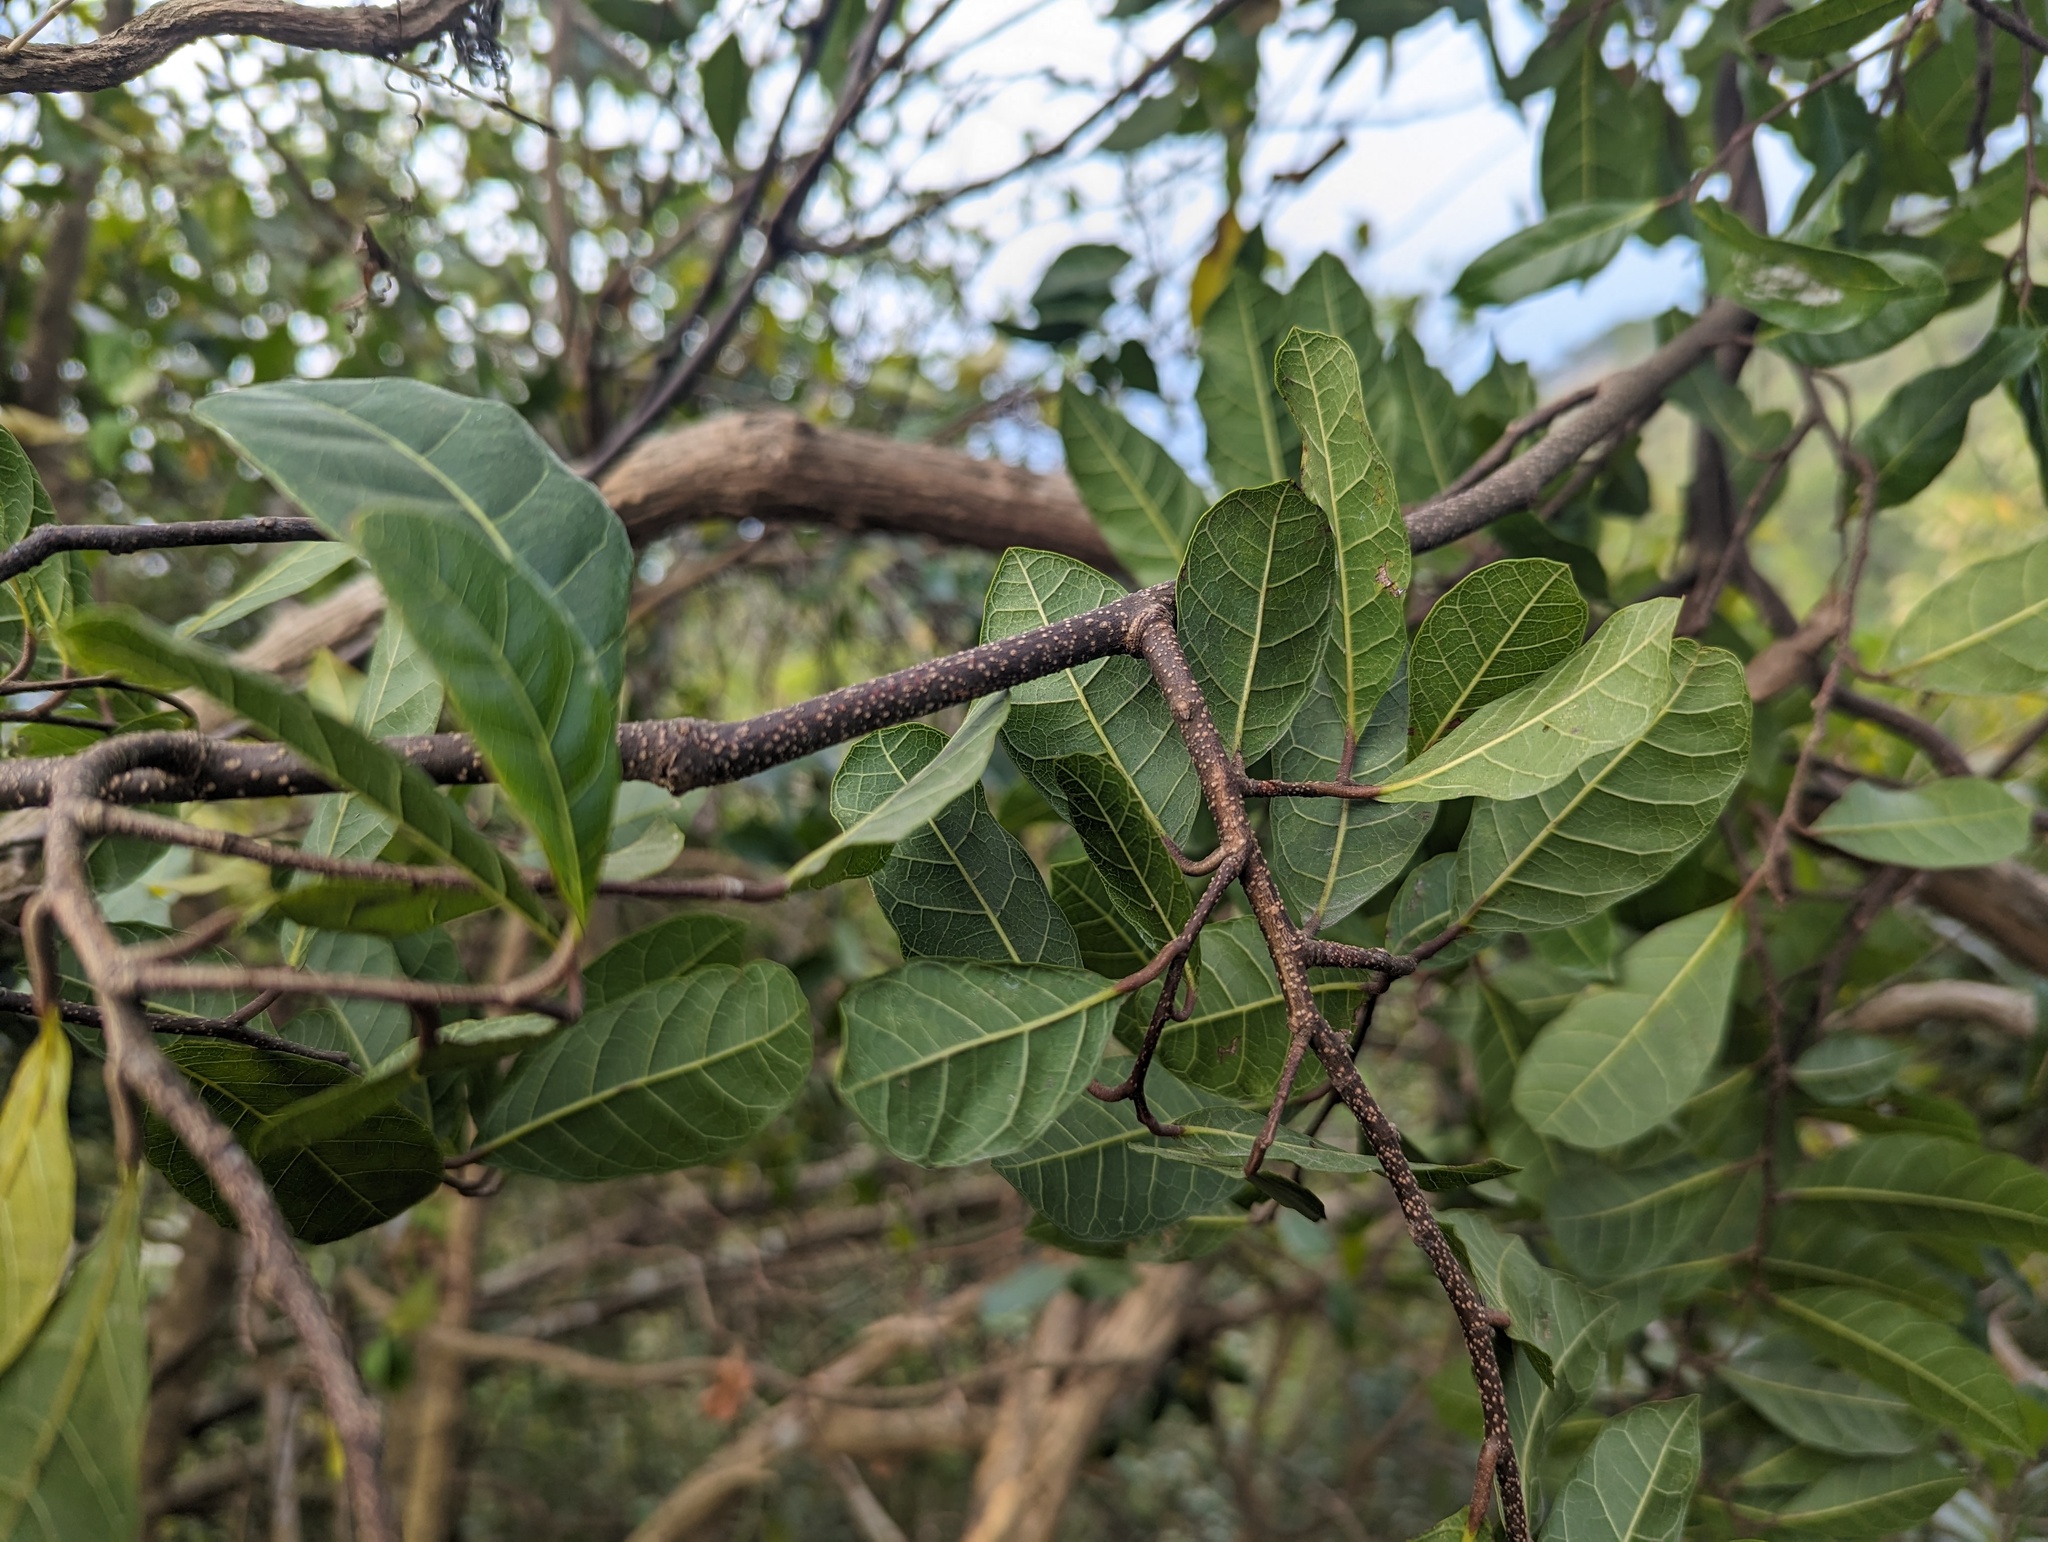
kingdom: Plantae
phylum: Tracheophyta
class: Magnoliopsida
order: Rosales
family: Moraceae
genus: Malaisia
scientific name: Malaisia scandens
